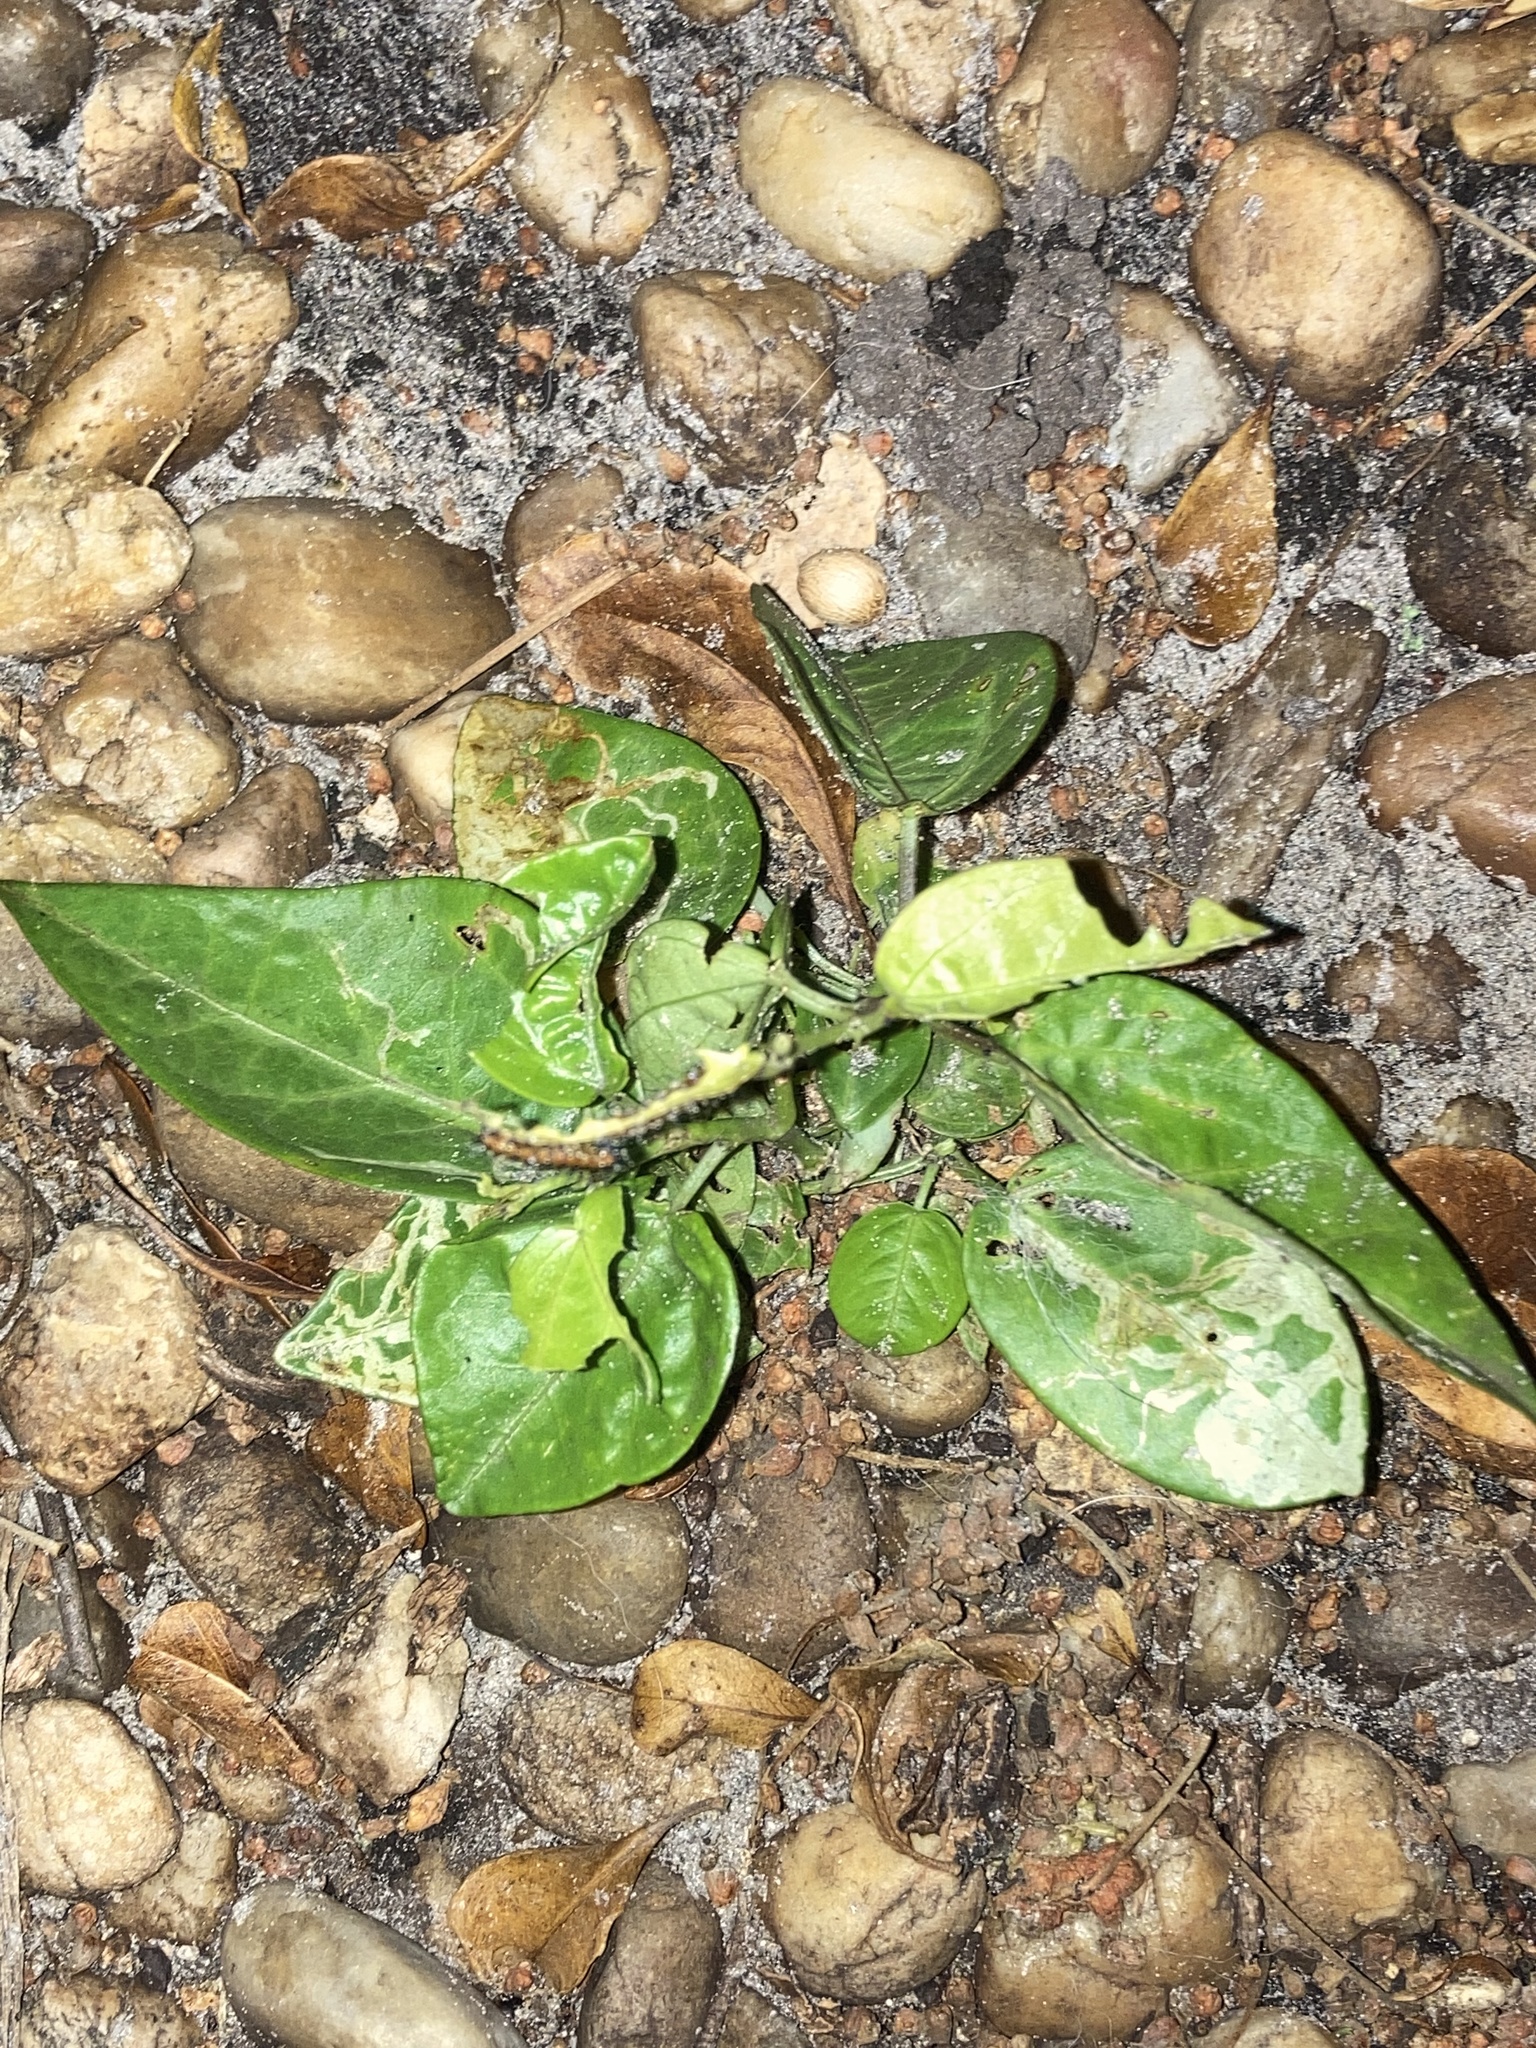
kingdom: Plantae
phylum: Tracheophyta
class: Magnoliopsida
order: Malpighiales
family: Passifloraceae
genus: Passiflora
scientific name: Passiflora pallida
